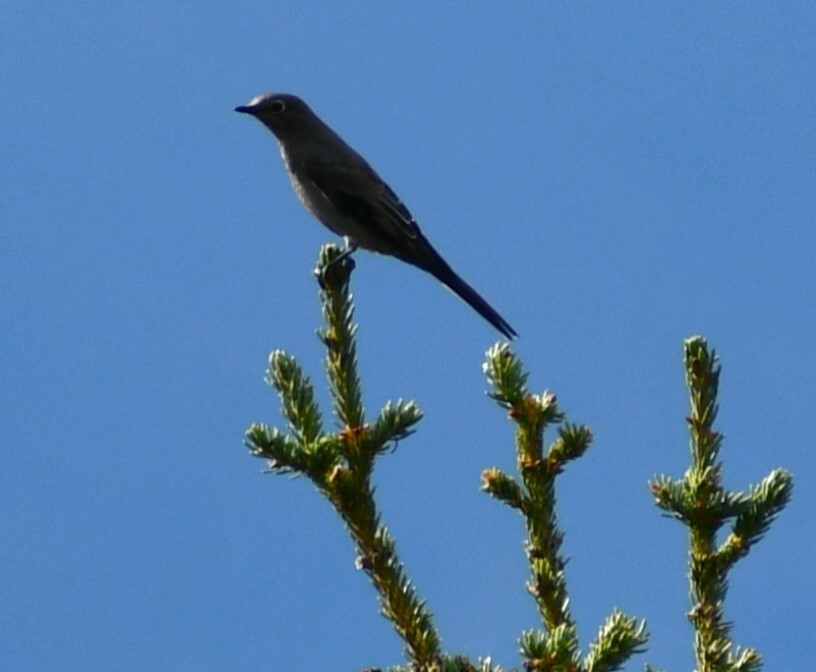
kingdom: Animalia
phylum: Chordata
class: Aves
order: Passeriformes
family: Turdidae
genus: Myadestes
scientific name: Myadestes townsendi
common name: Townsend's solitaire
